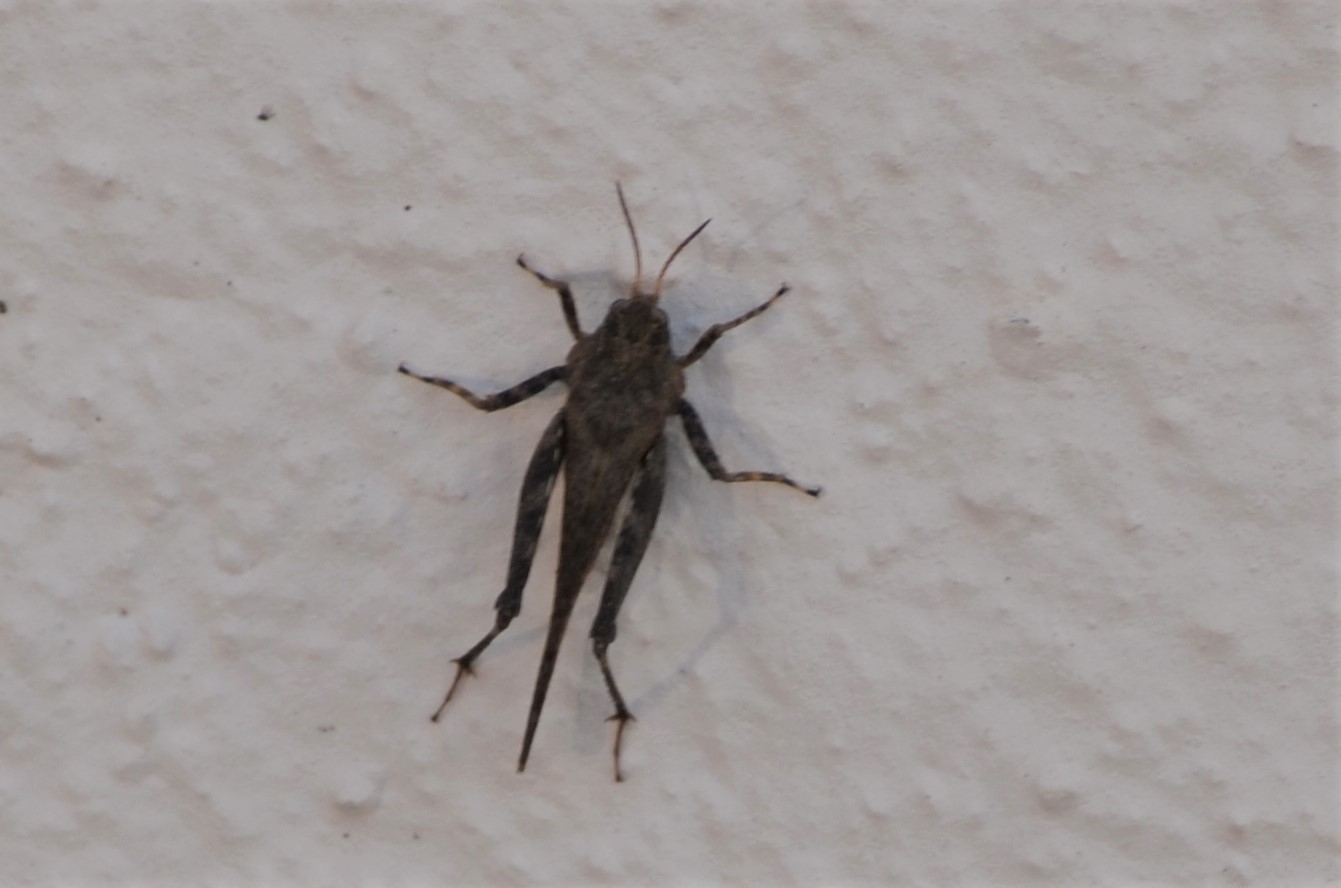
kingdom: Animalia
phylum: Arthropoda
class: Insecta
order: Orthoptera
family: Tetrigidae
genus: Tetrix
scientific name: Tetrix subulata
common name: Slender ground-hopper
